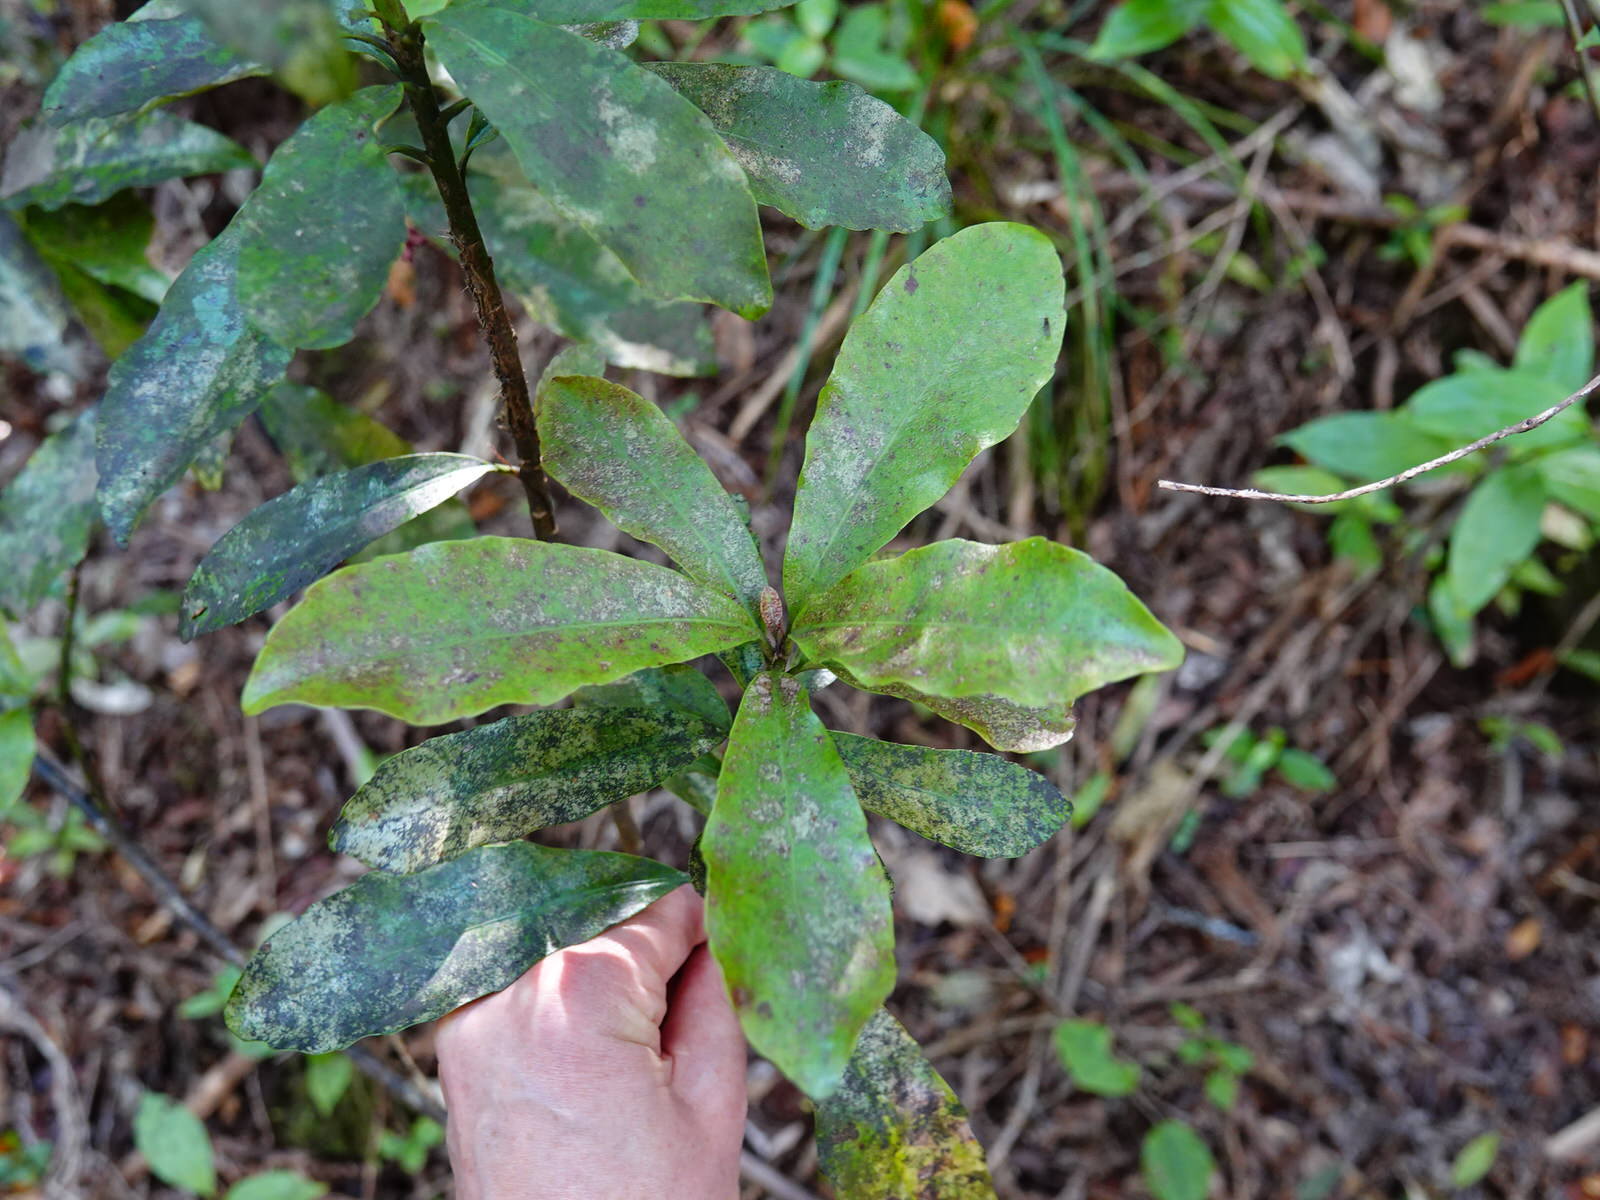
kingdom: Plantae
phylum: Tracheophyta
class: Magnoliopsida
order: Asterales
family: Alseuosmiaceae
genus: Alseuosmia
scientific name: Alseuosmia macrophylla
